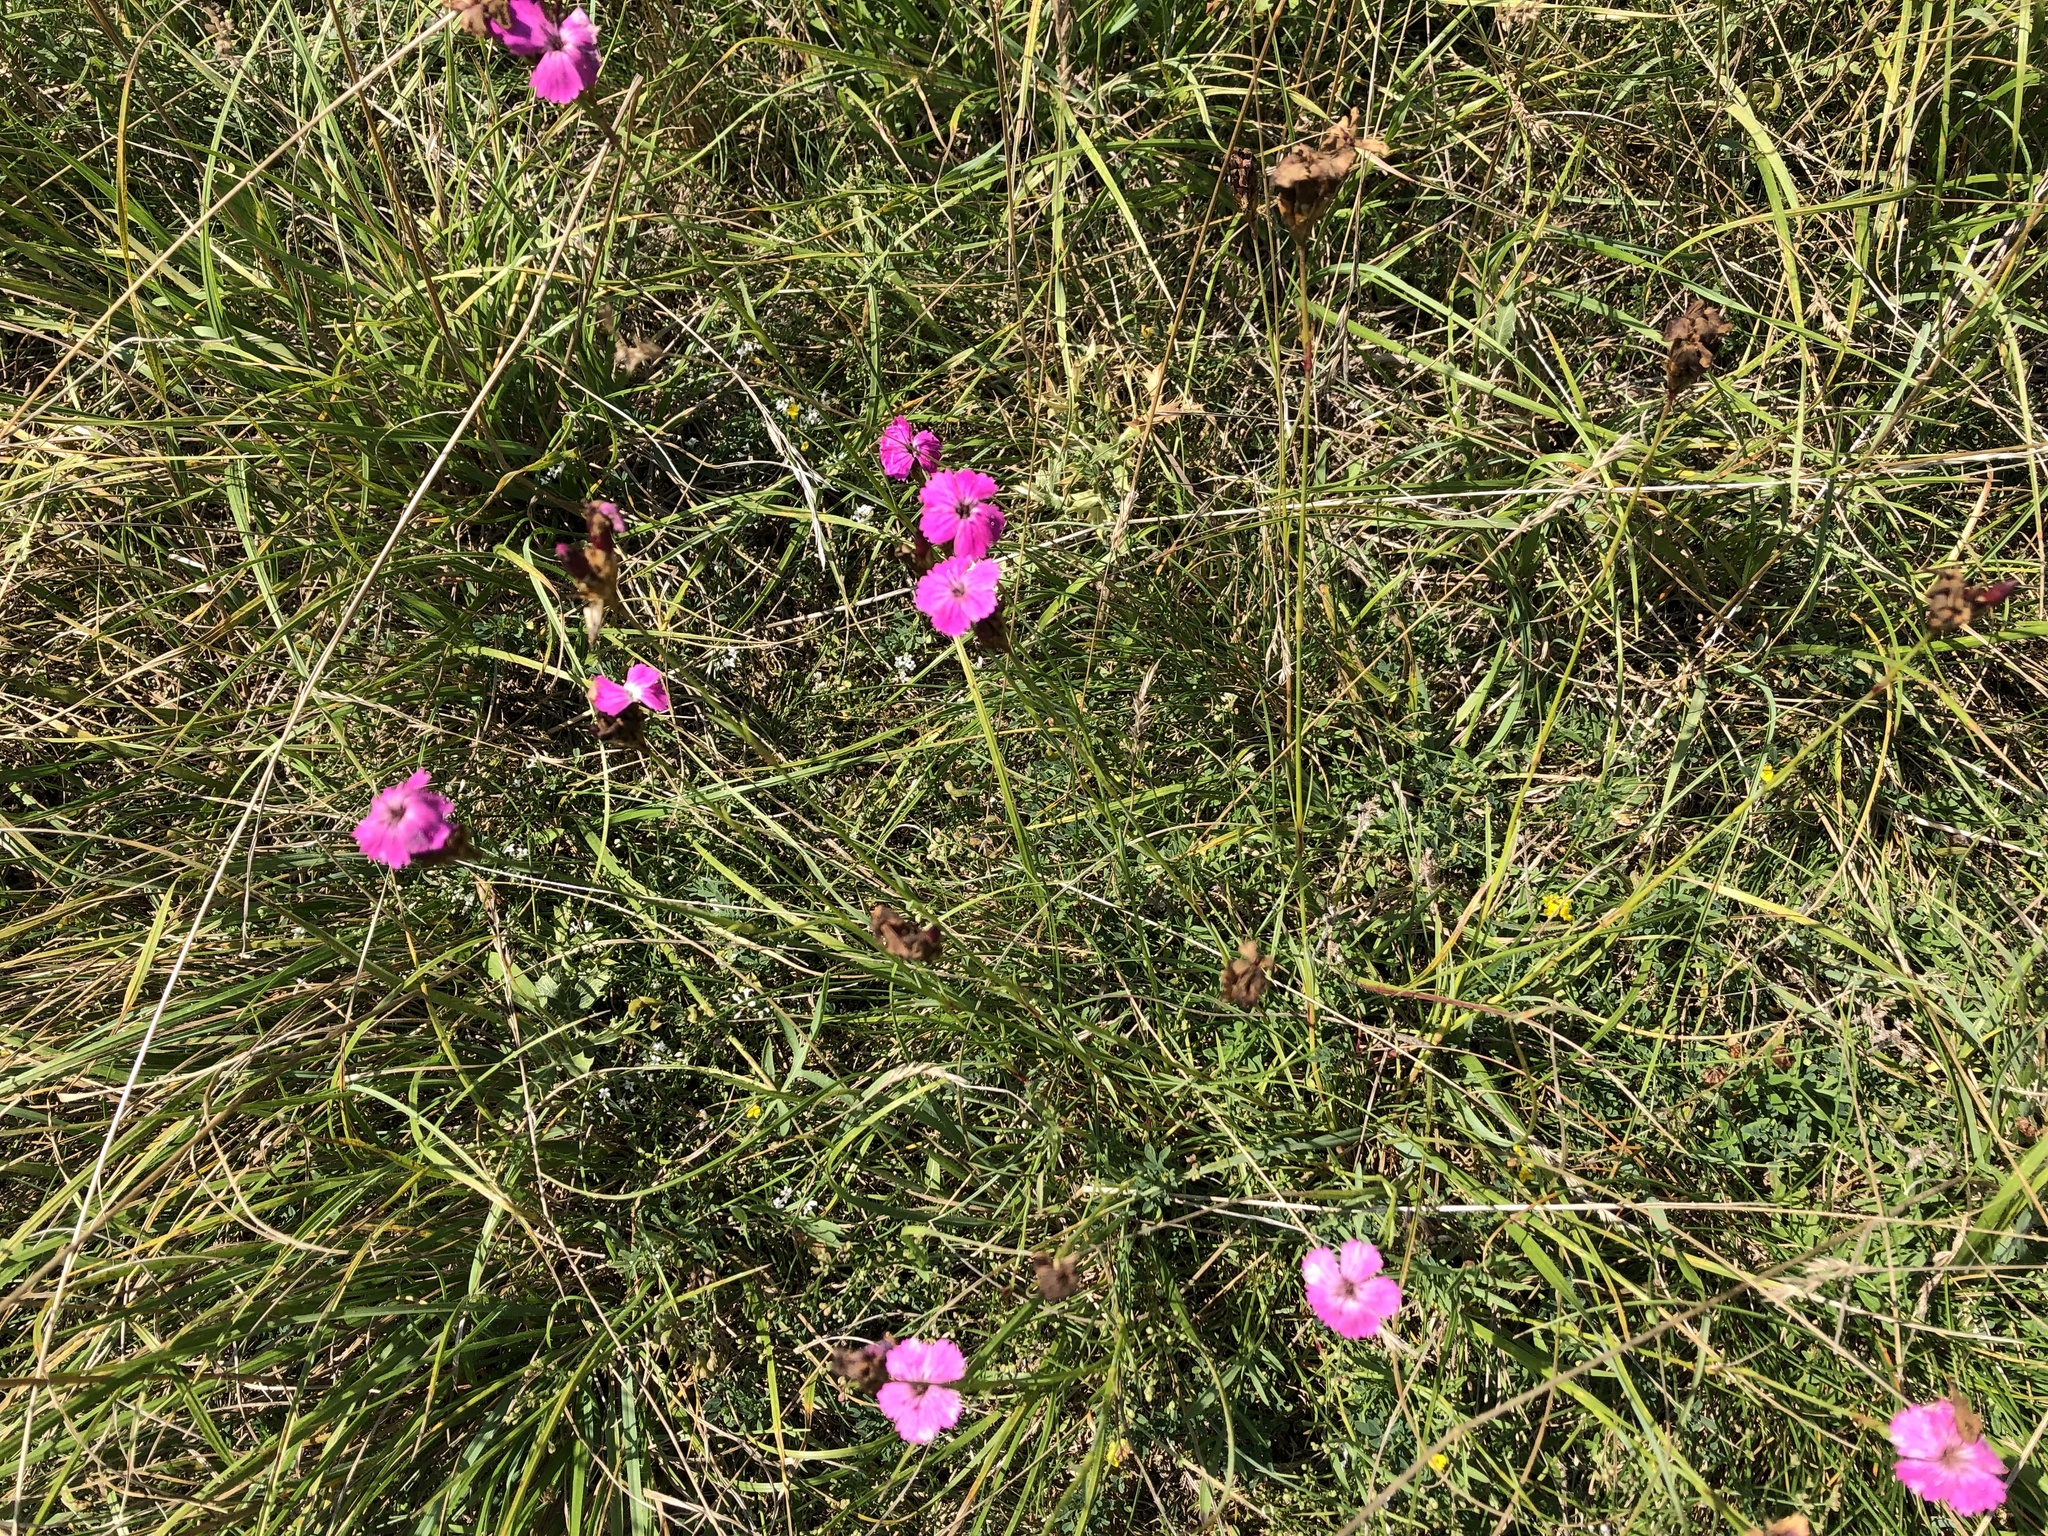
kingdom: Plantae
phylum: Tracheophyta
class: Magnoliopsida
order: Caryophyllales
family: Caryophyllaceae
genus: Dianthus
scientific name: Dianthus carthusianorum
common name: Carthusian pink
